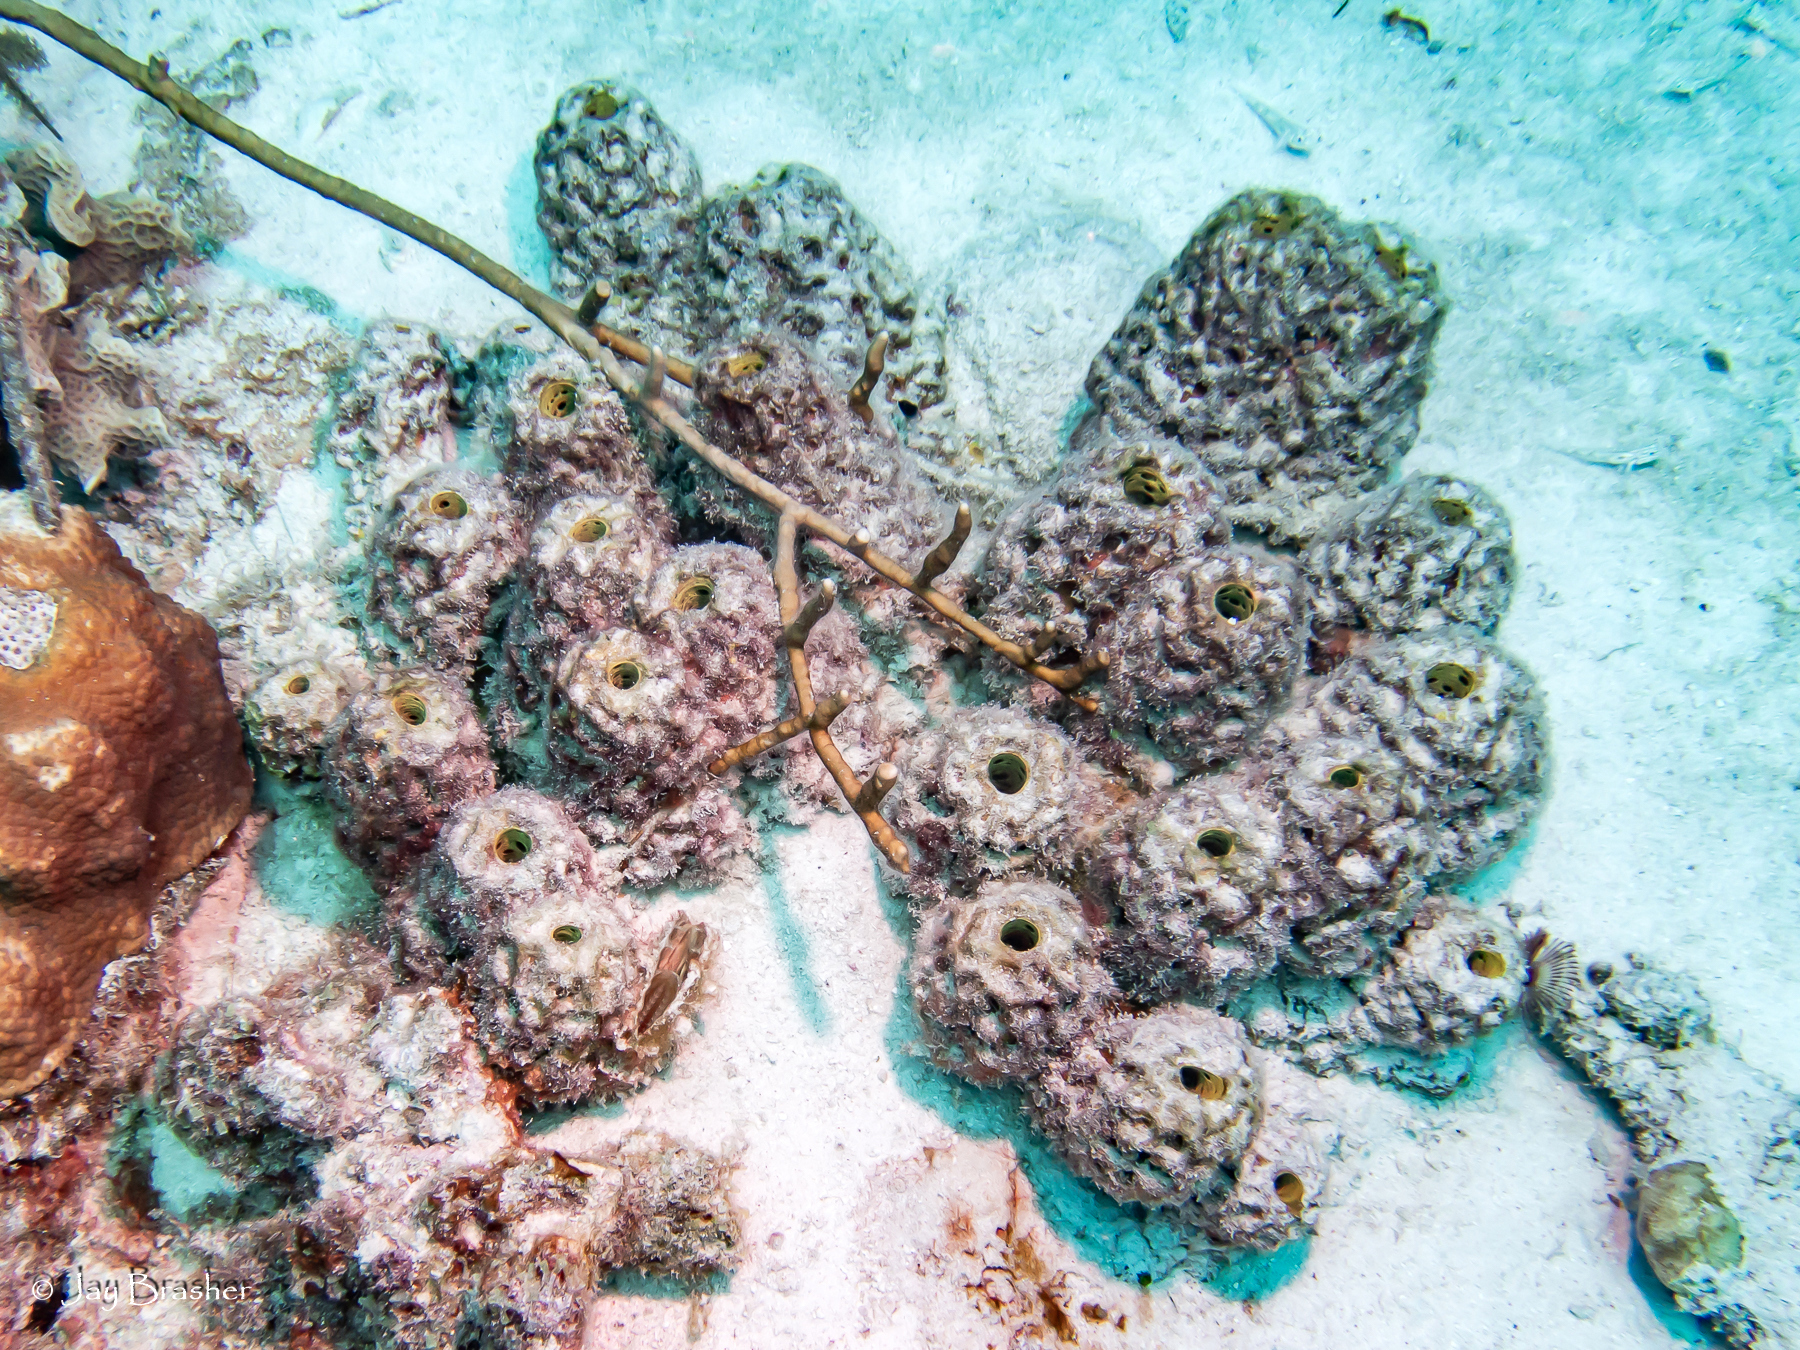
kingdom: Animalia
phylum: Porifera
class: Demospongiae
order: Verongiida
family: Aplysinidae
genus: Verongula
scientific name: Verongula rigida
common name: Pitted sponge
